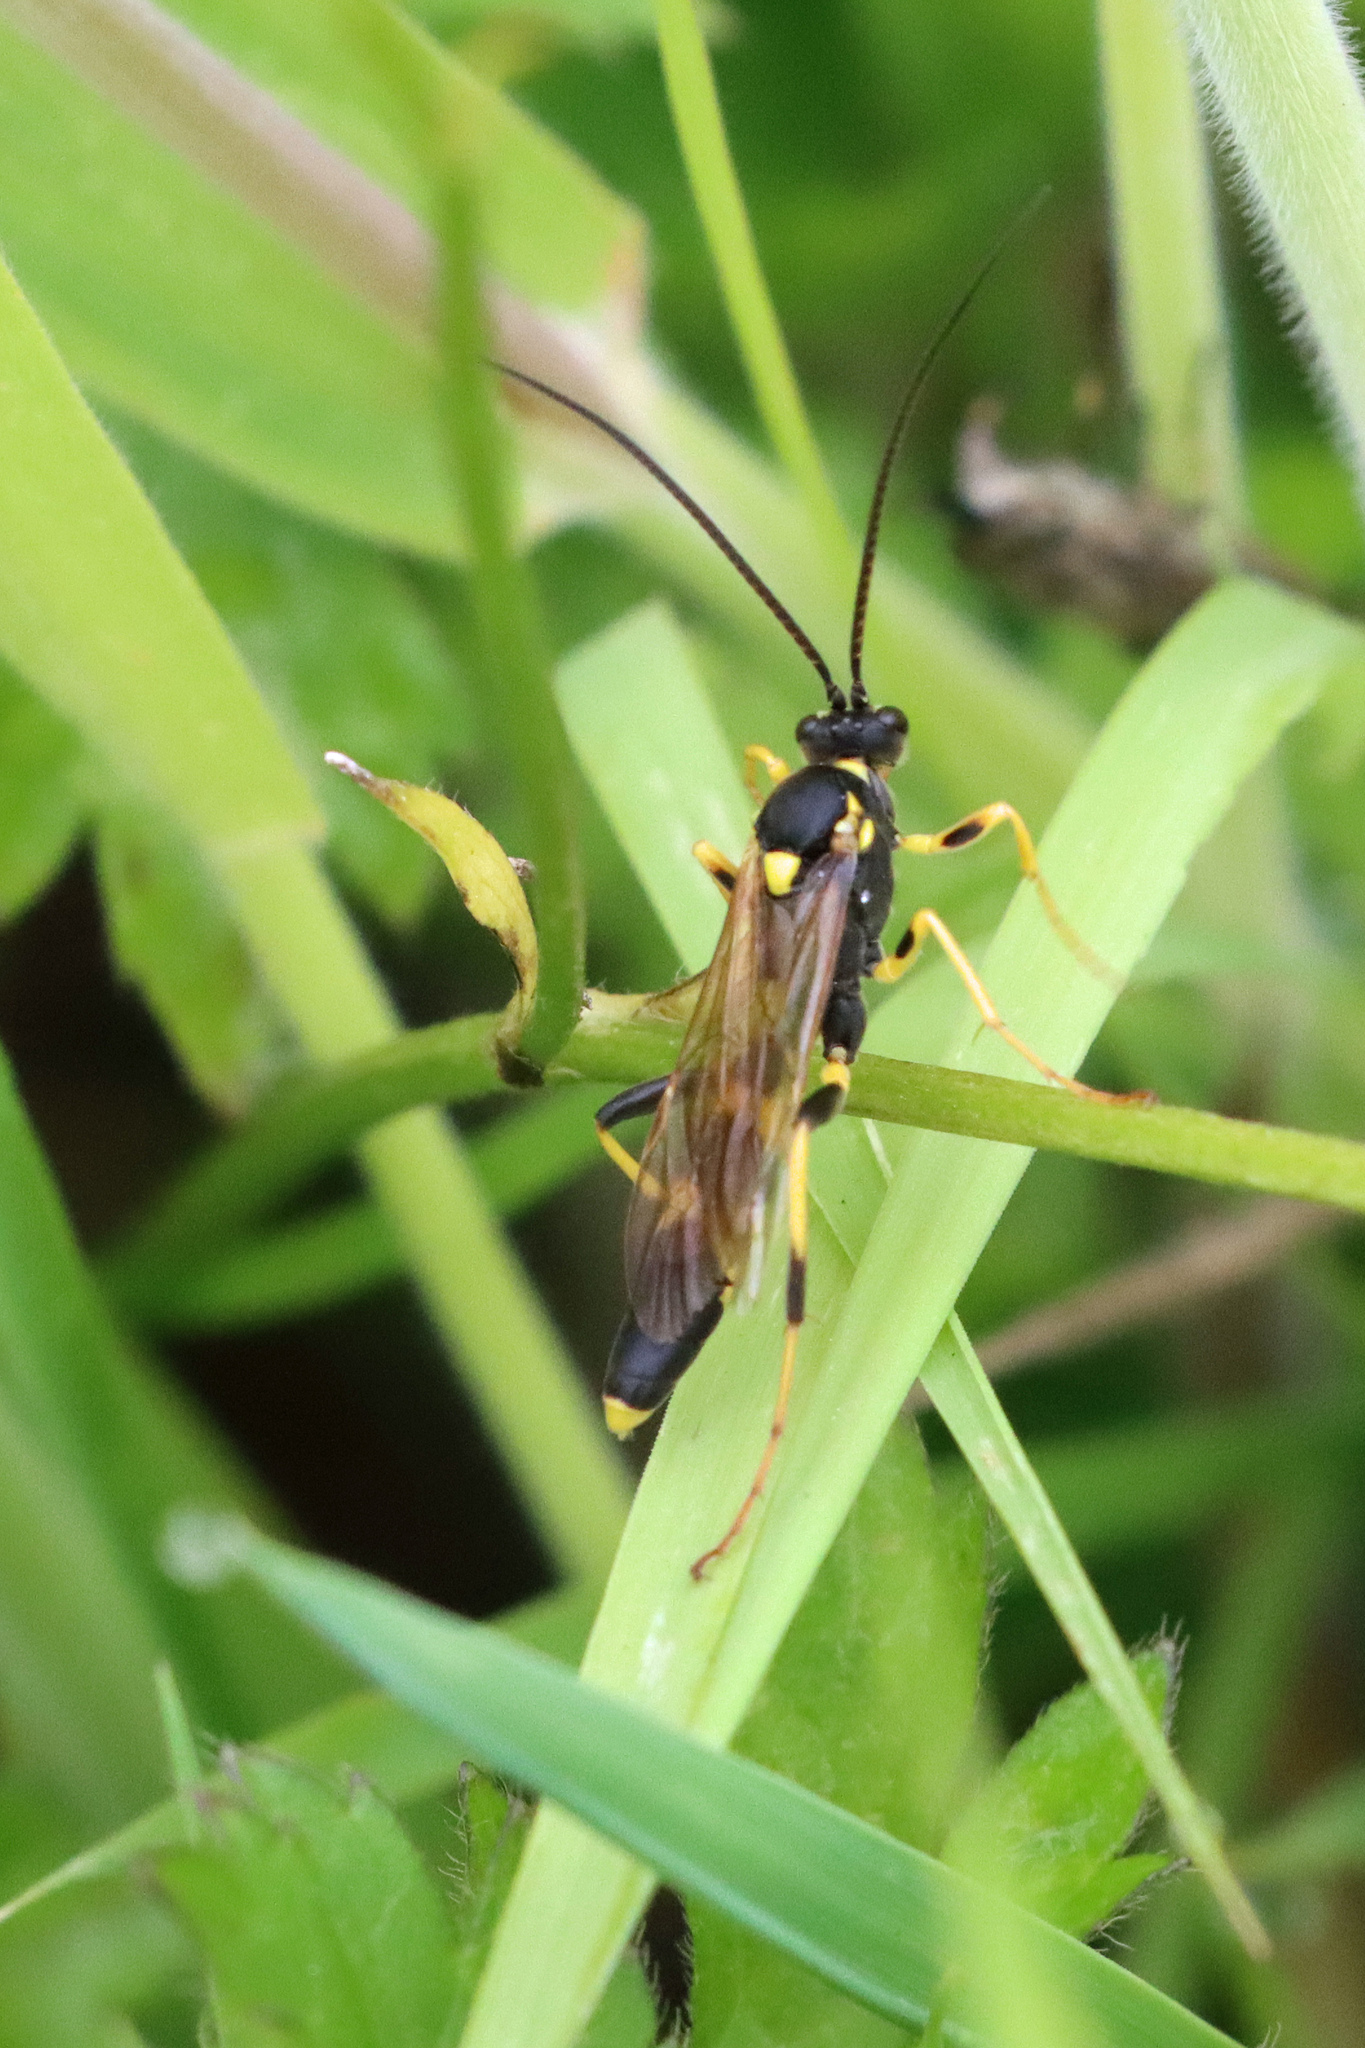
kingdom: Animalia
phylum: Arthropoda
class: Insecta
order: Hymenoptera
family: Ichneumonidae
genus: Amblyteles
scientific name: Amblyteles armatorius
